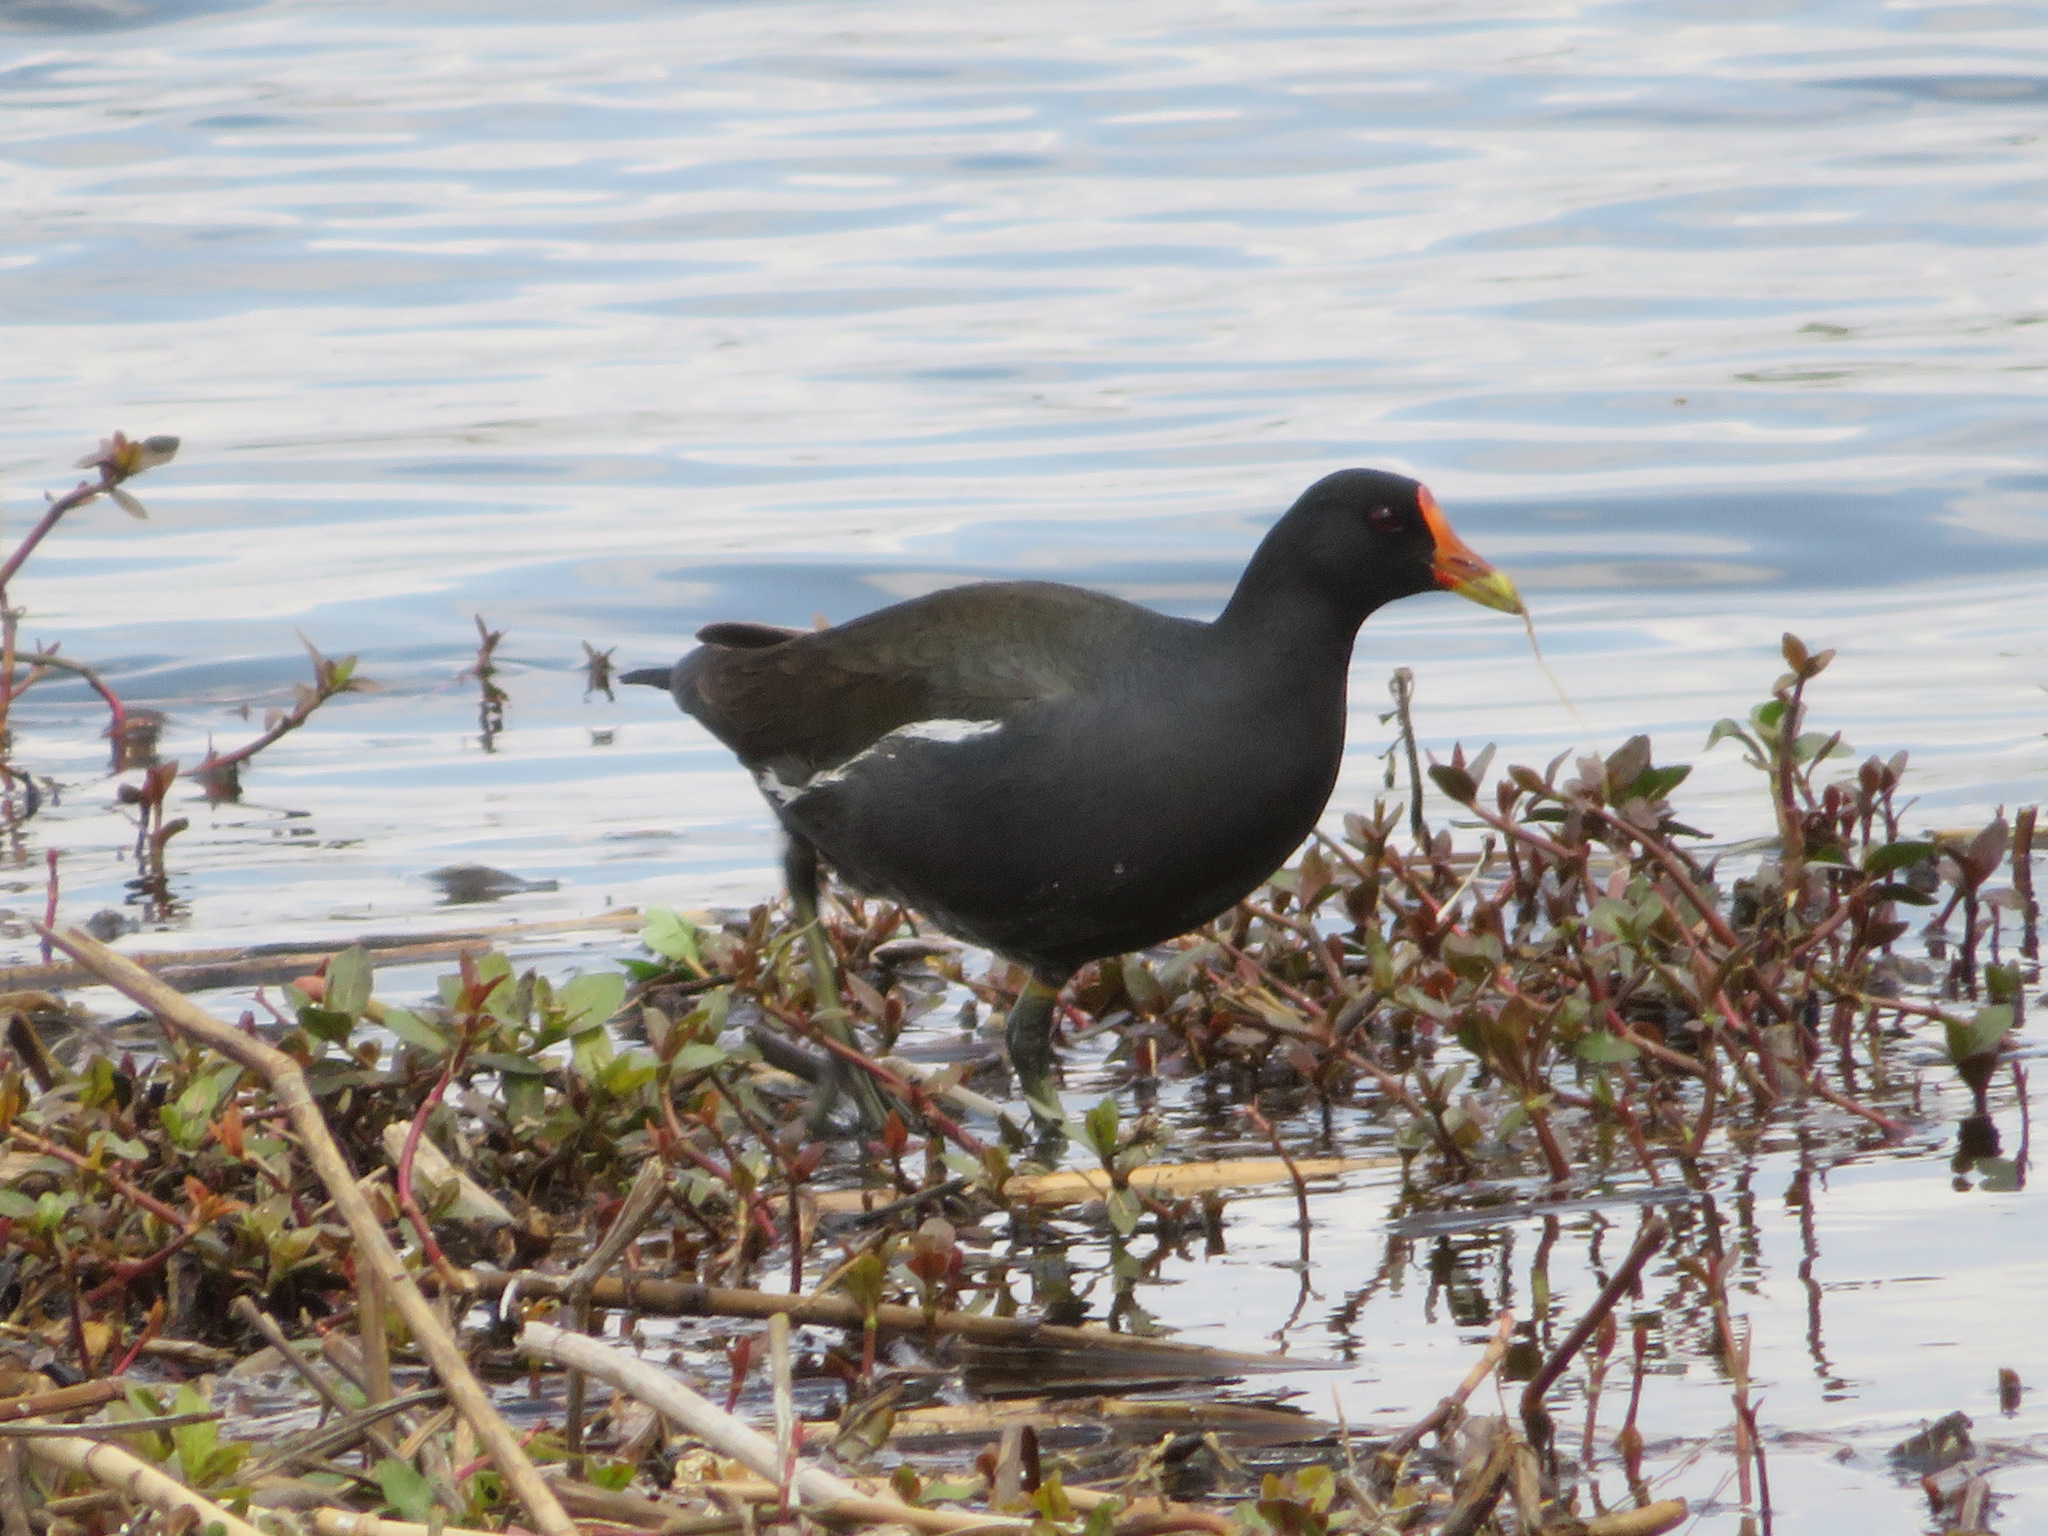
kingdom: Animalia
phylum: Chordata
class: Aves
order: Gruiformes
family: Rallidae
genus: Gallinula
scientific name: Gallinula chloropus
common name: Common moorhen
